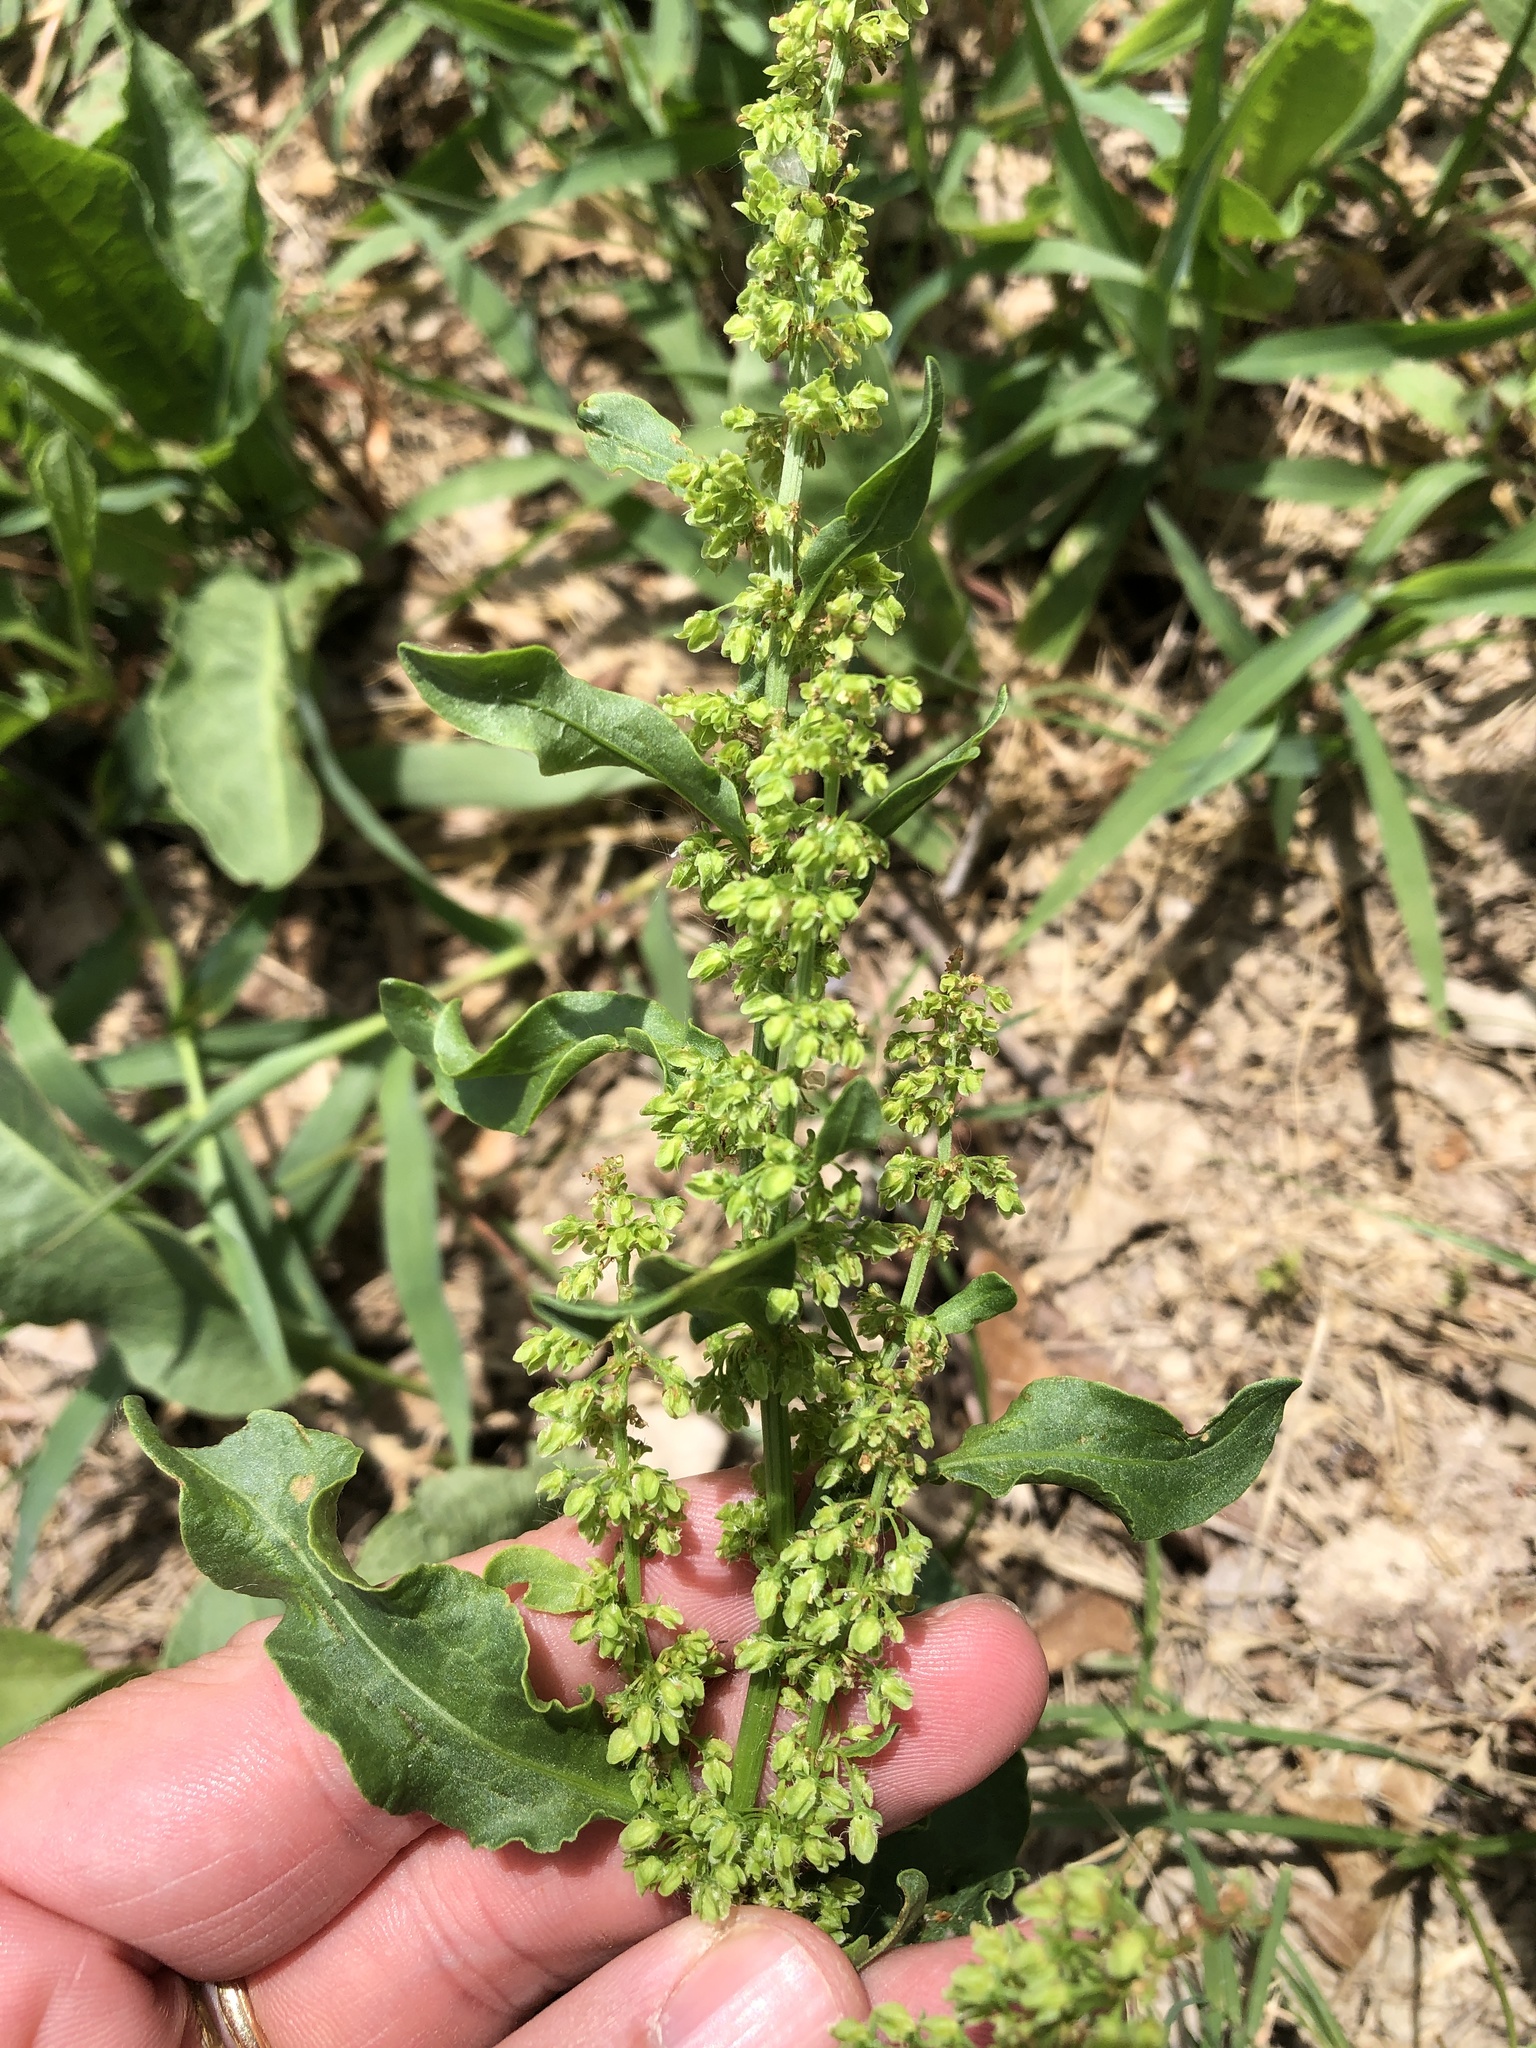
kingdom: Plantae
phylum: Tracheophyta
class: Magnoliopsida
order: Caryophyllales
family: Polygonaceae
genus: Rumex
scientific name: Rumex crispus
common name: Curled dock
